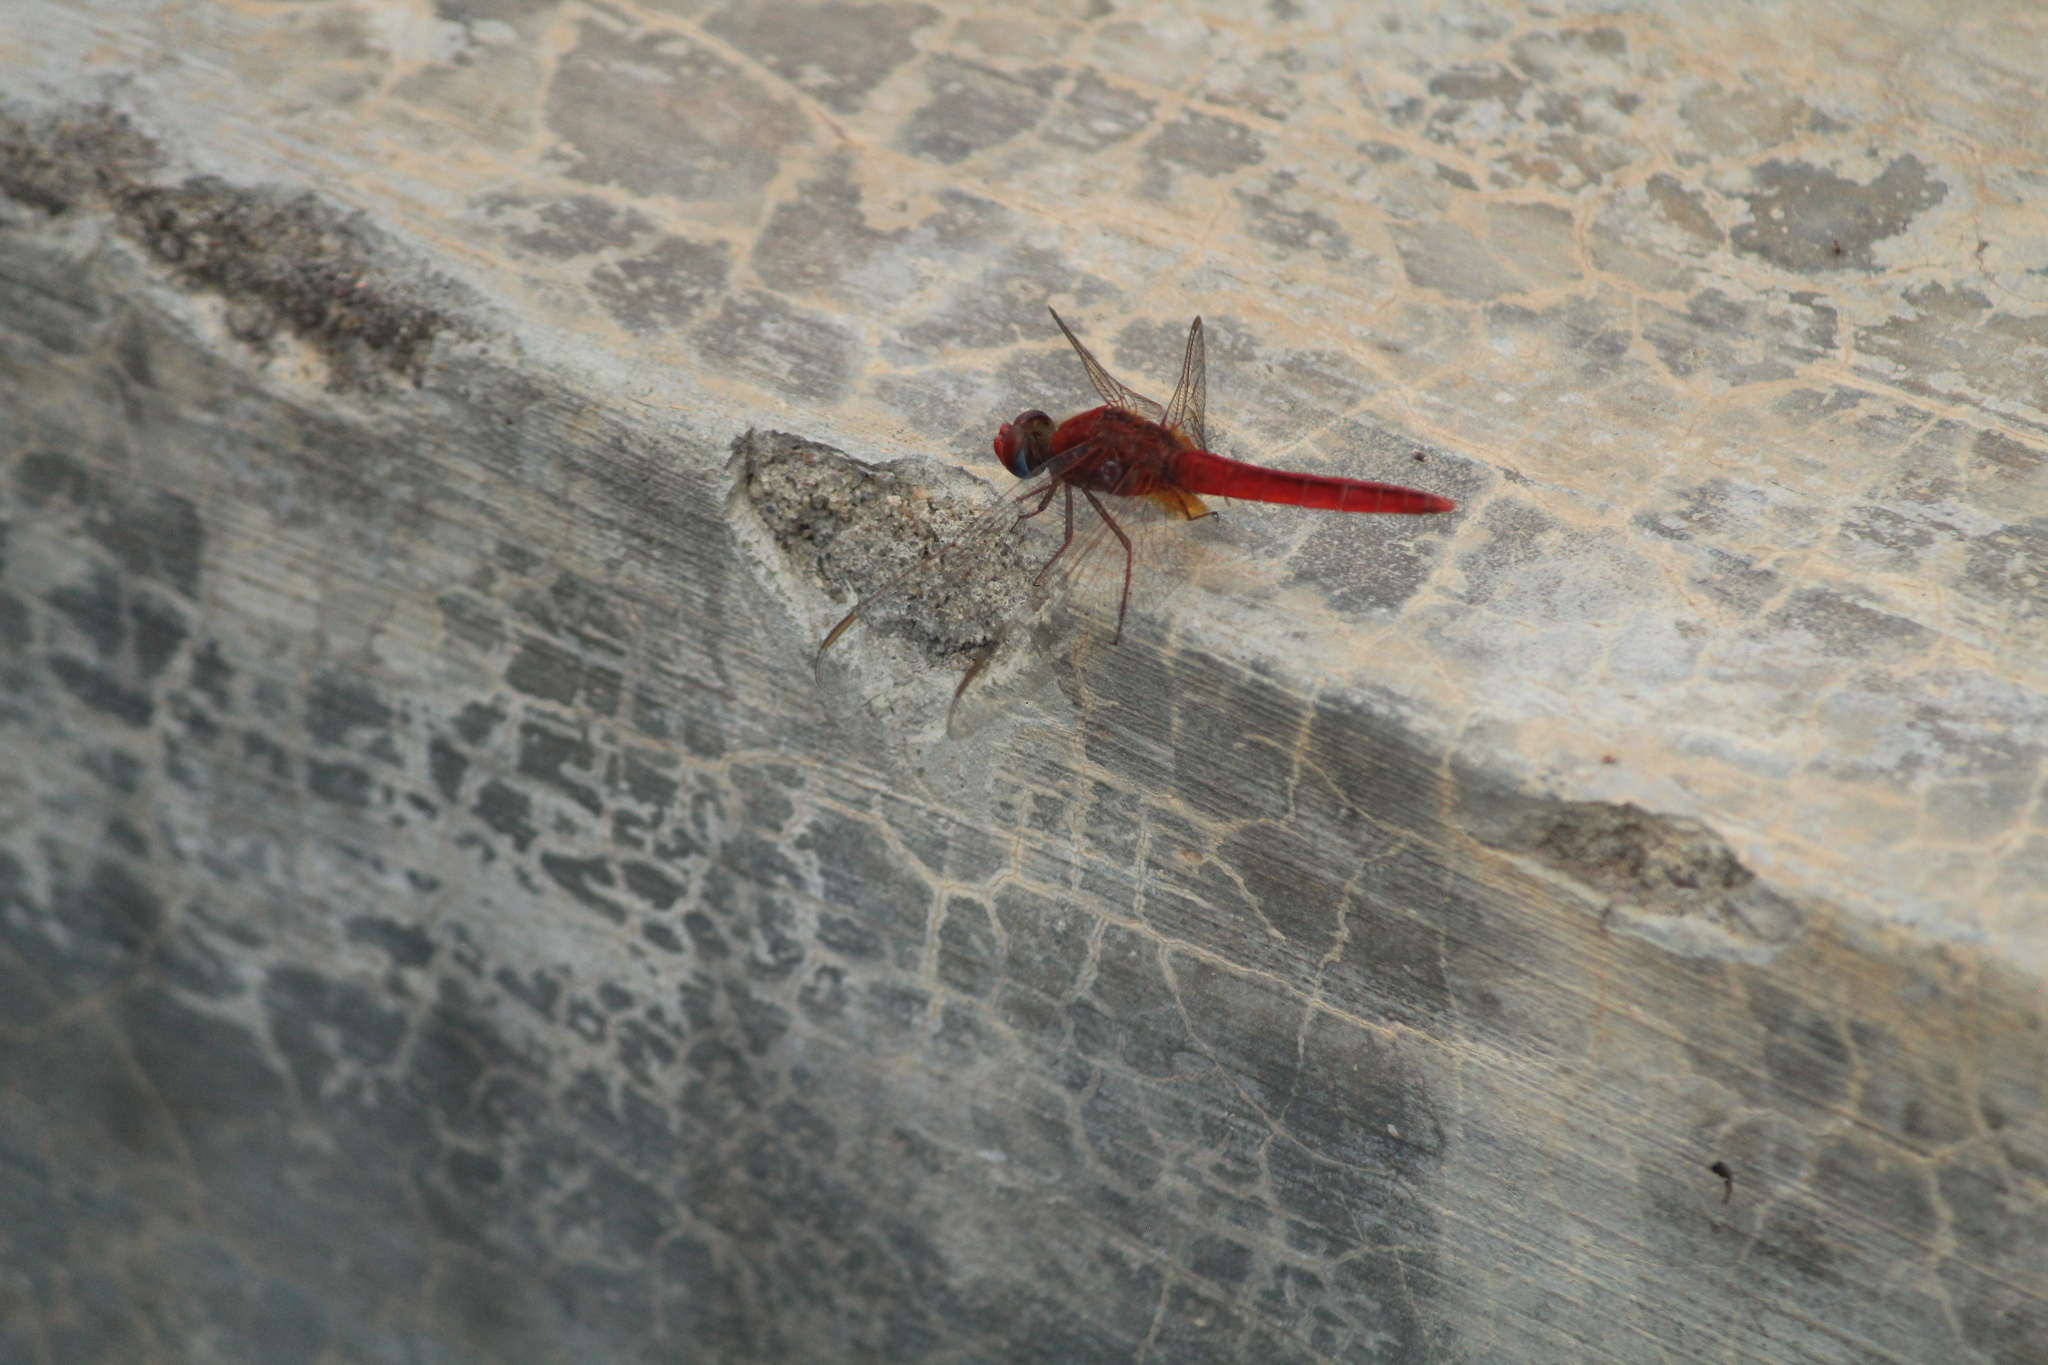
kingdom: Animalia
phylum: Arthropoda
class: Insecta
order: Odonata
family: Libellulidae
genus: Crocothemis
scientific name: Crocothemis servilia
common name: Scarlet skimmer
